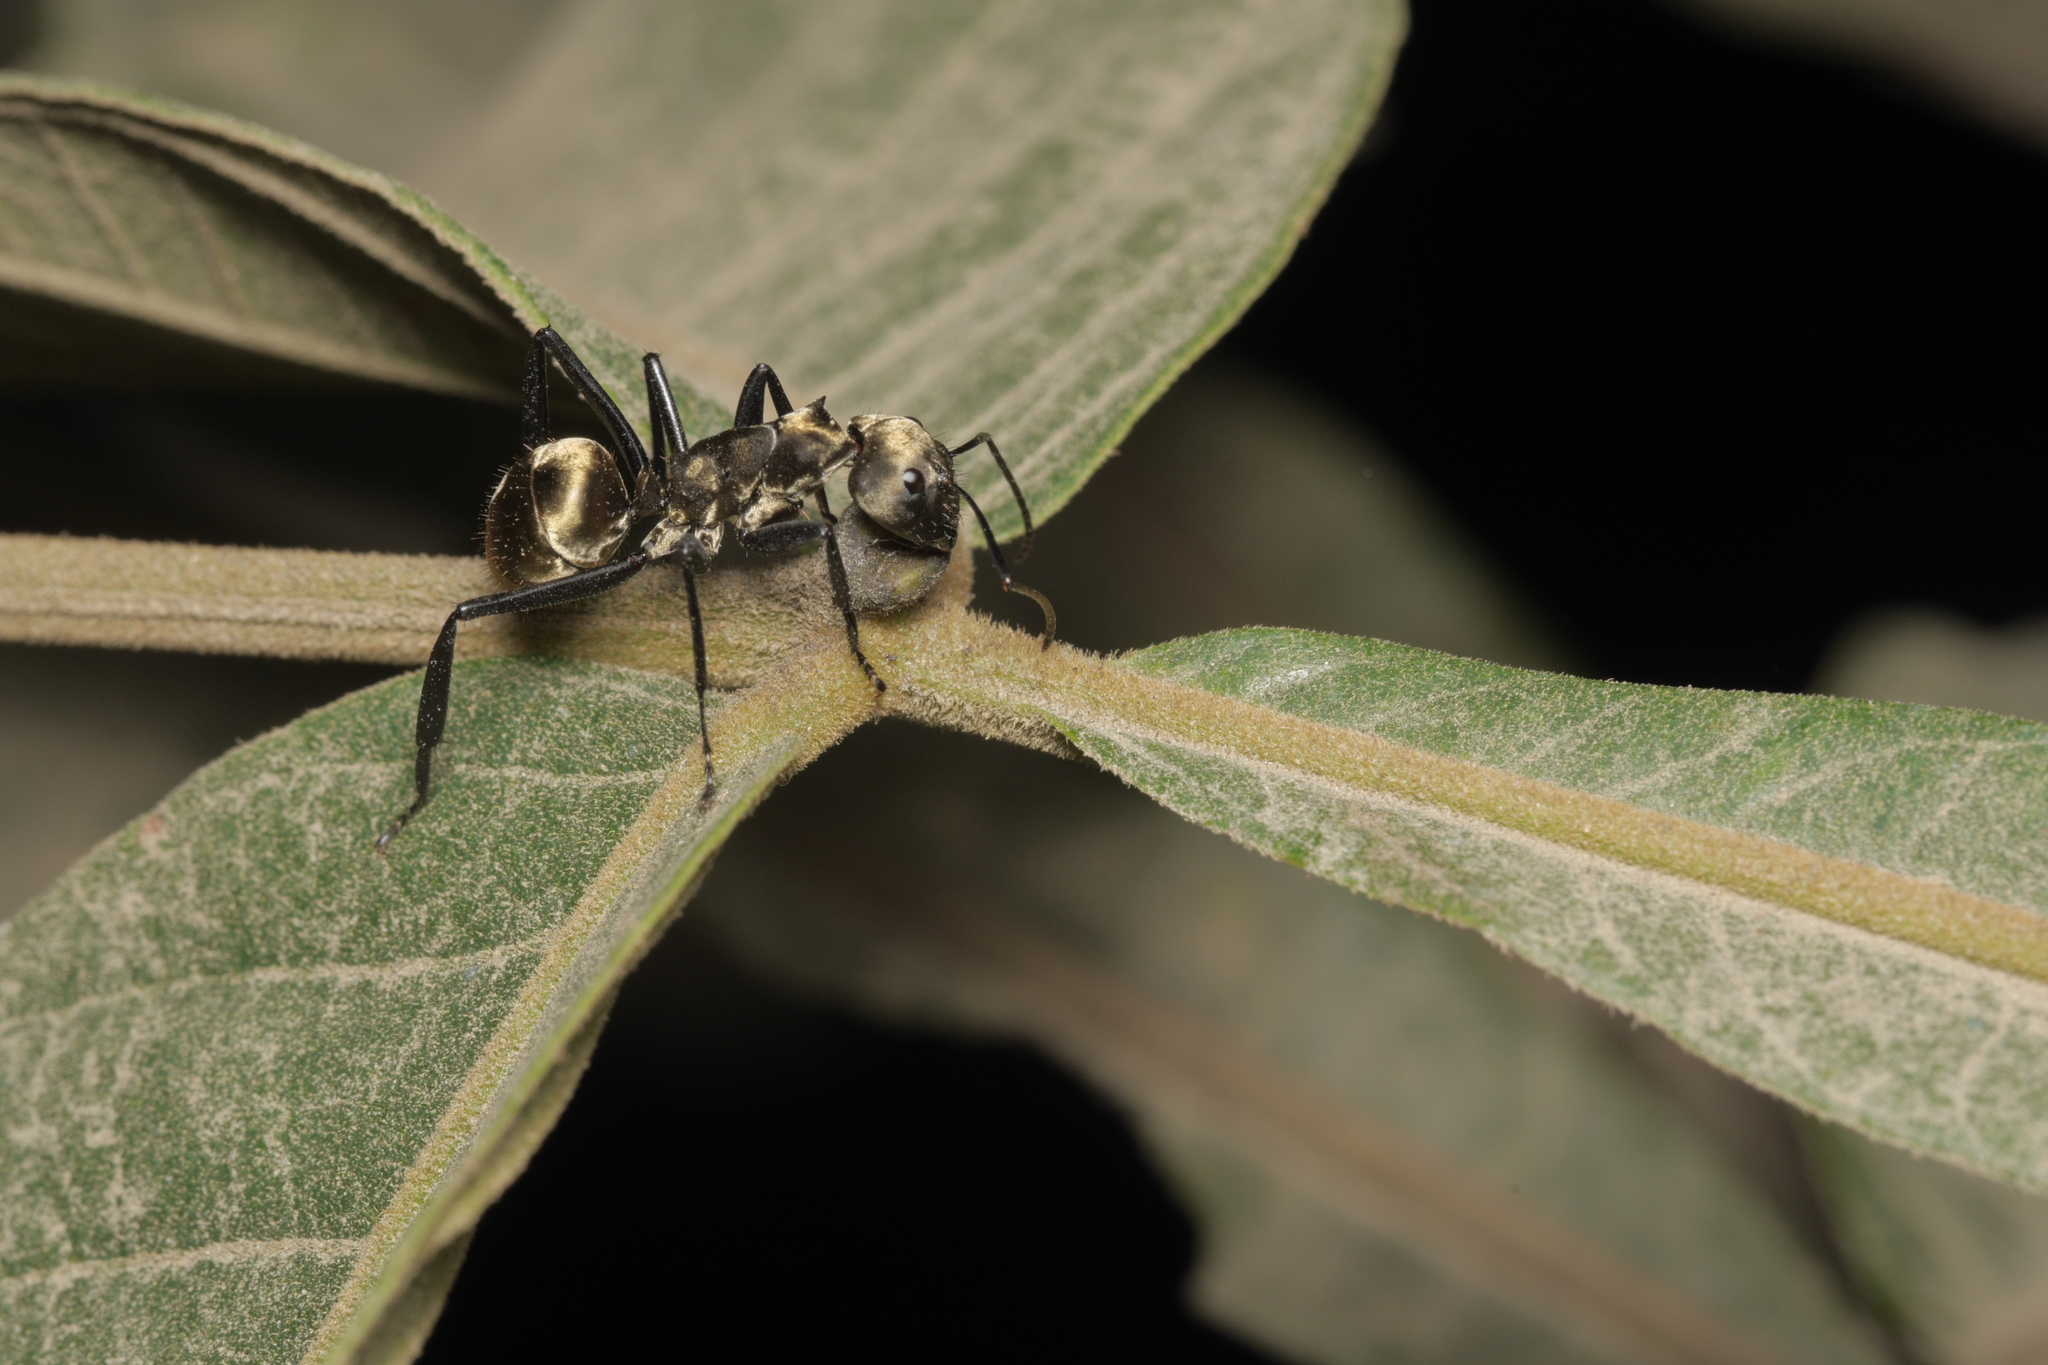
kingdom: Animalia
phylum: Arthropoda
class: Insecta
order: Hymenoptera
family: Formicidae
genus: Camponotus
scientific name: Camponotus sericeiventris
